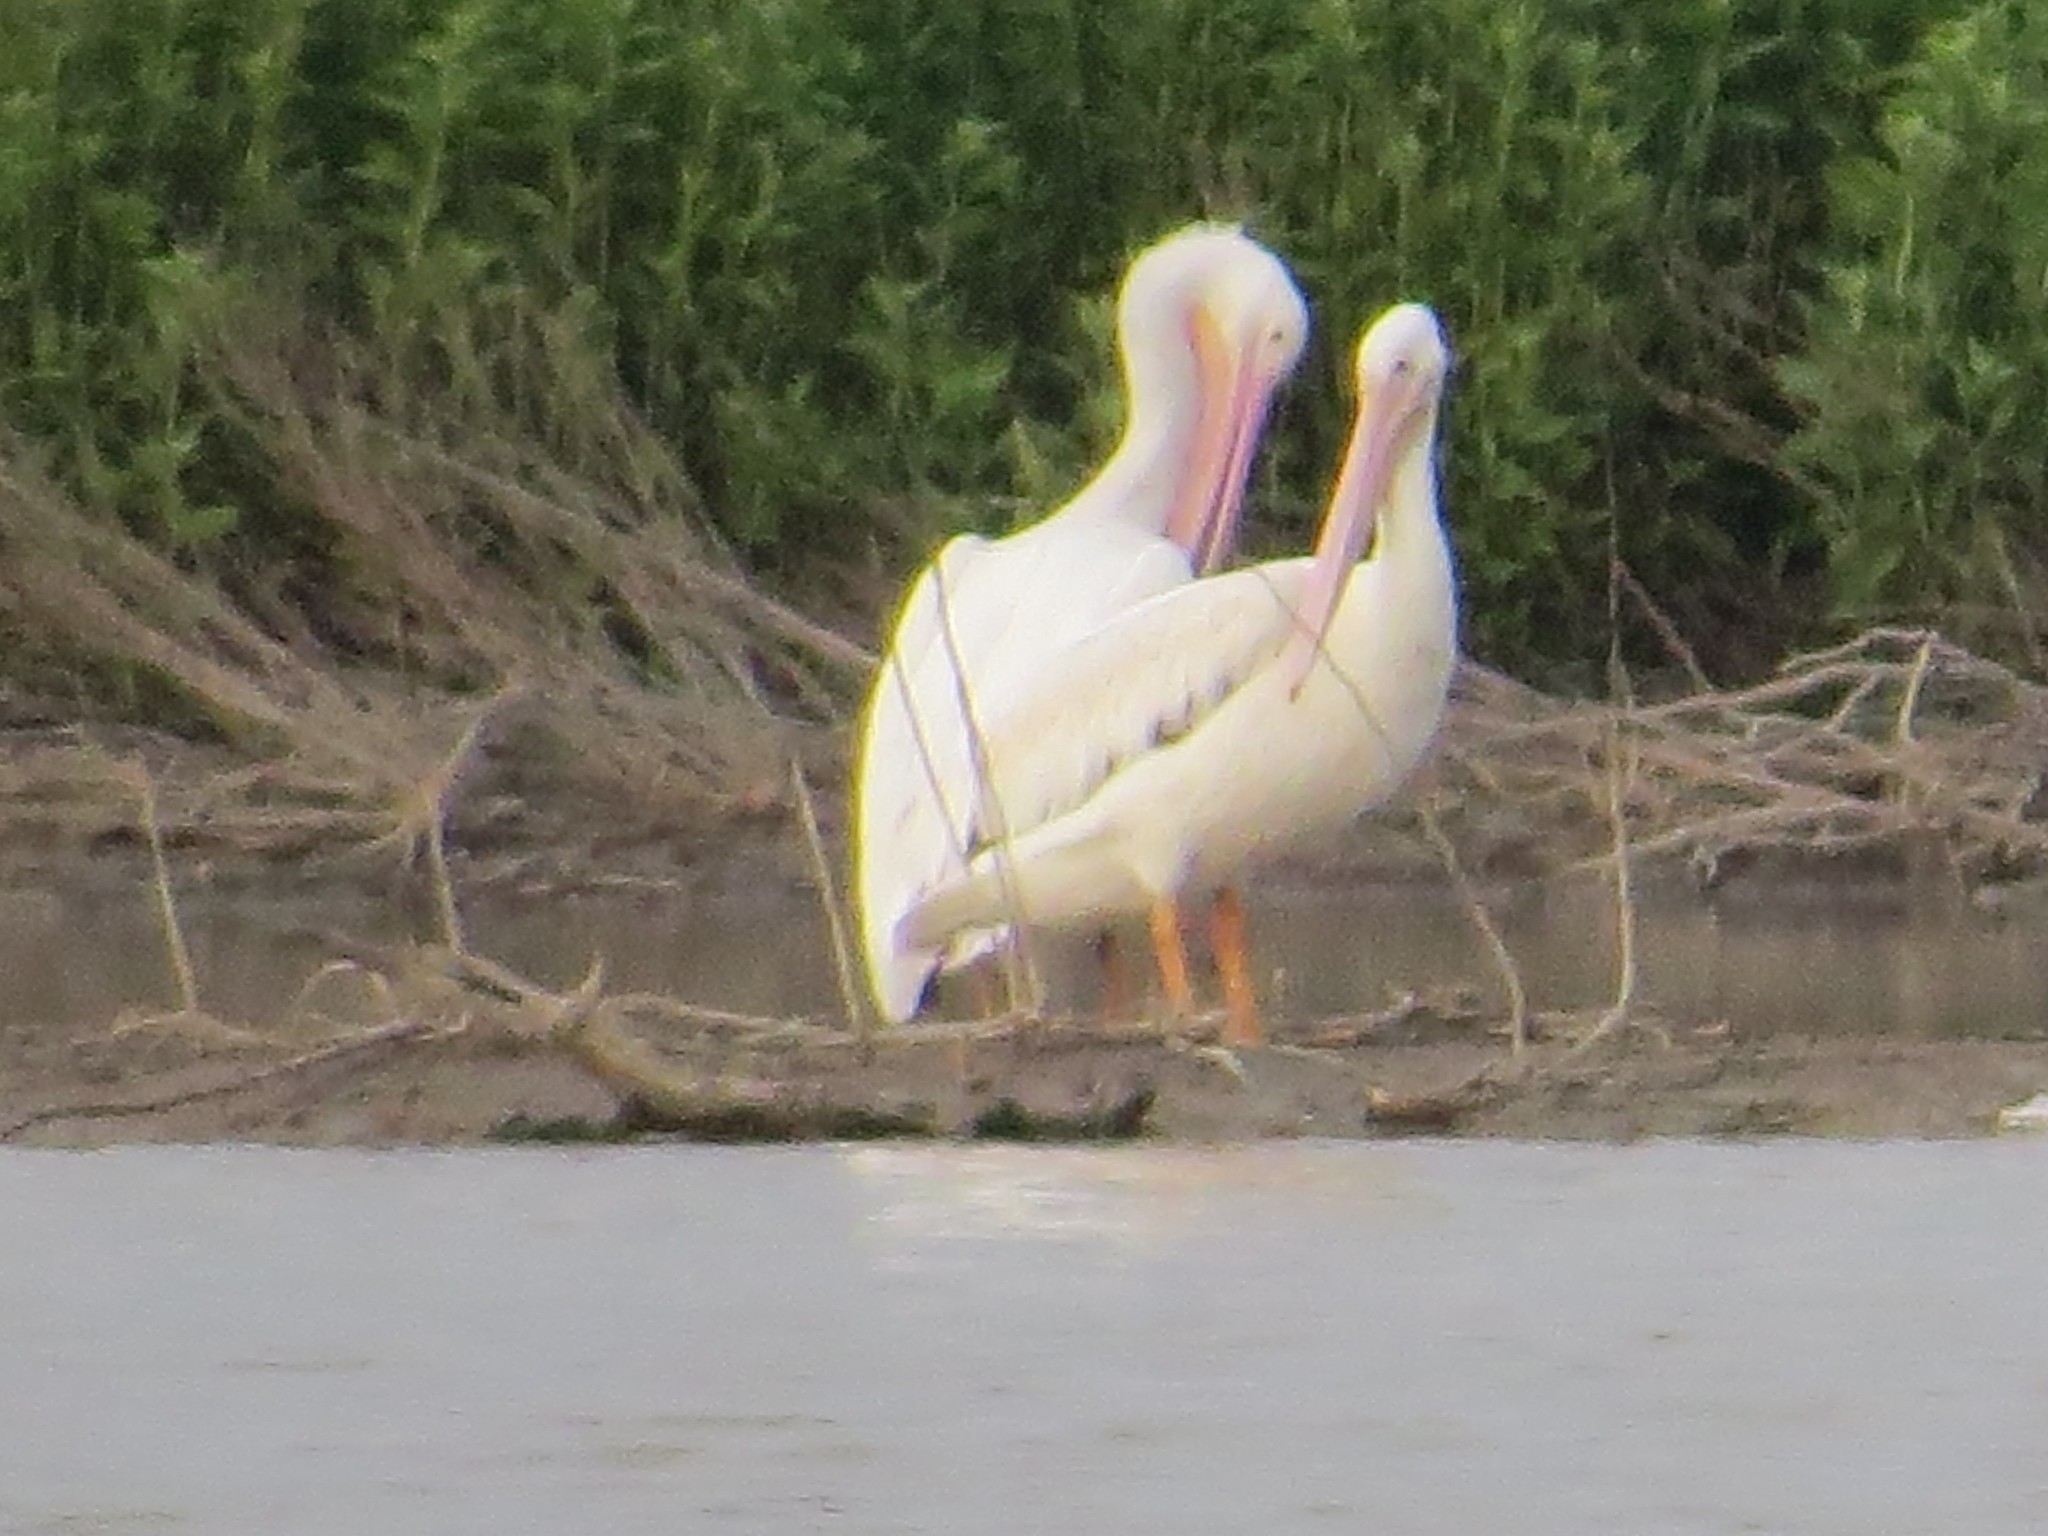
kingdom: Animalia
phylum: Chordata
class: Aves
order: Pelecaniformes
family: Pelecanidae
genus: Pelecanus
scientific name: Pelecanus erythrorhynchos
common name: American white pelican
